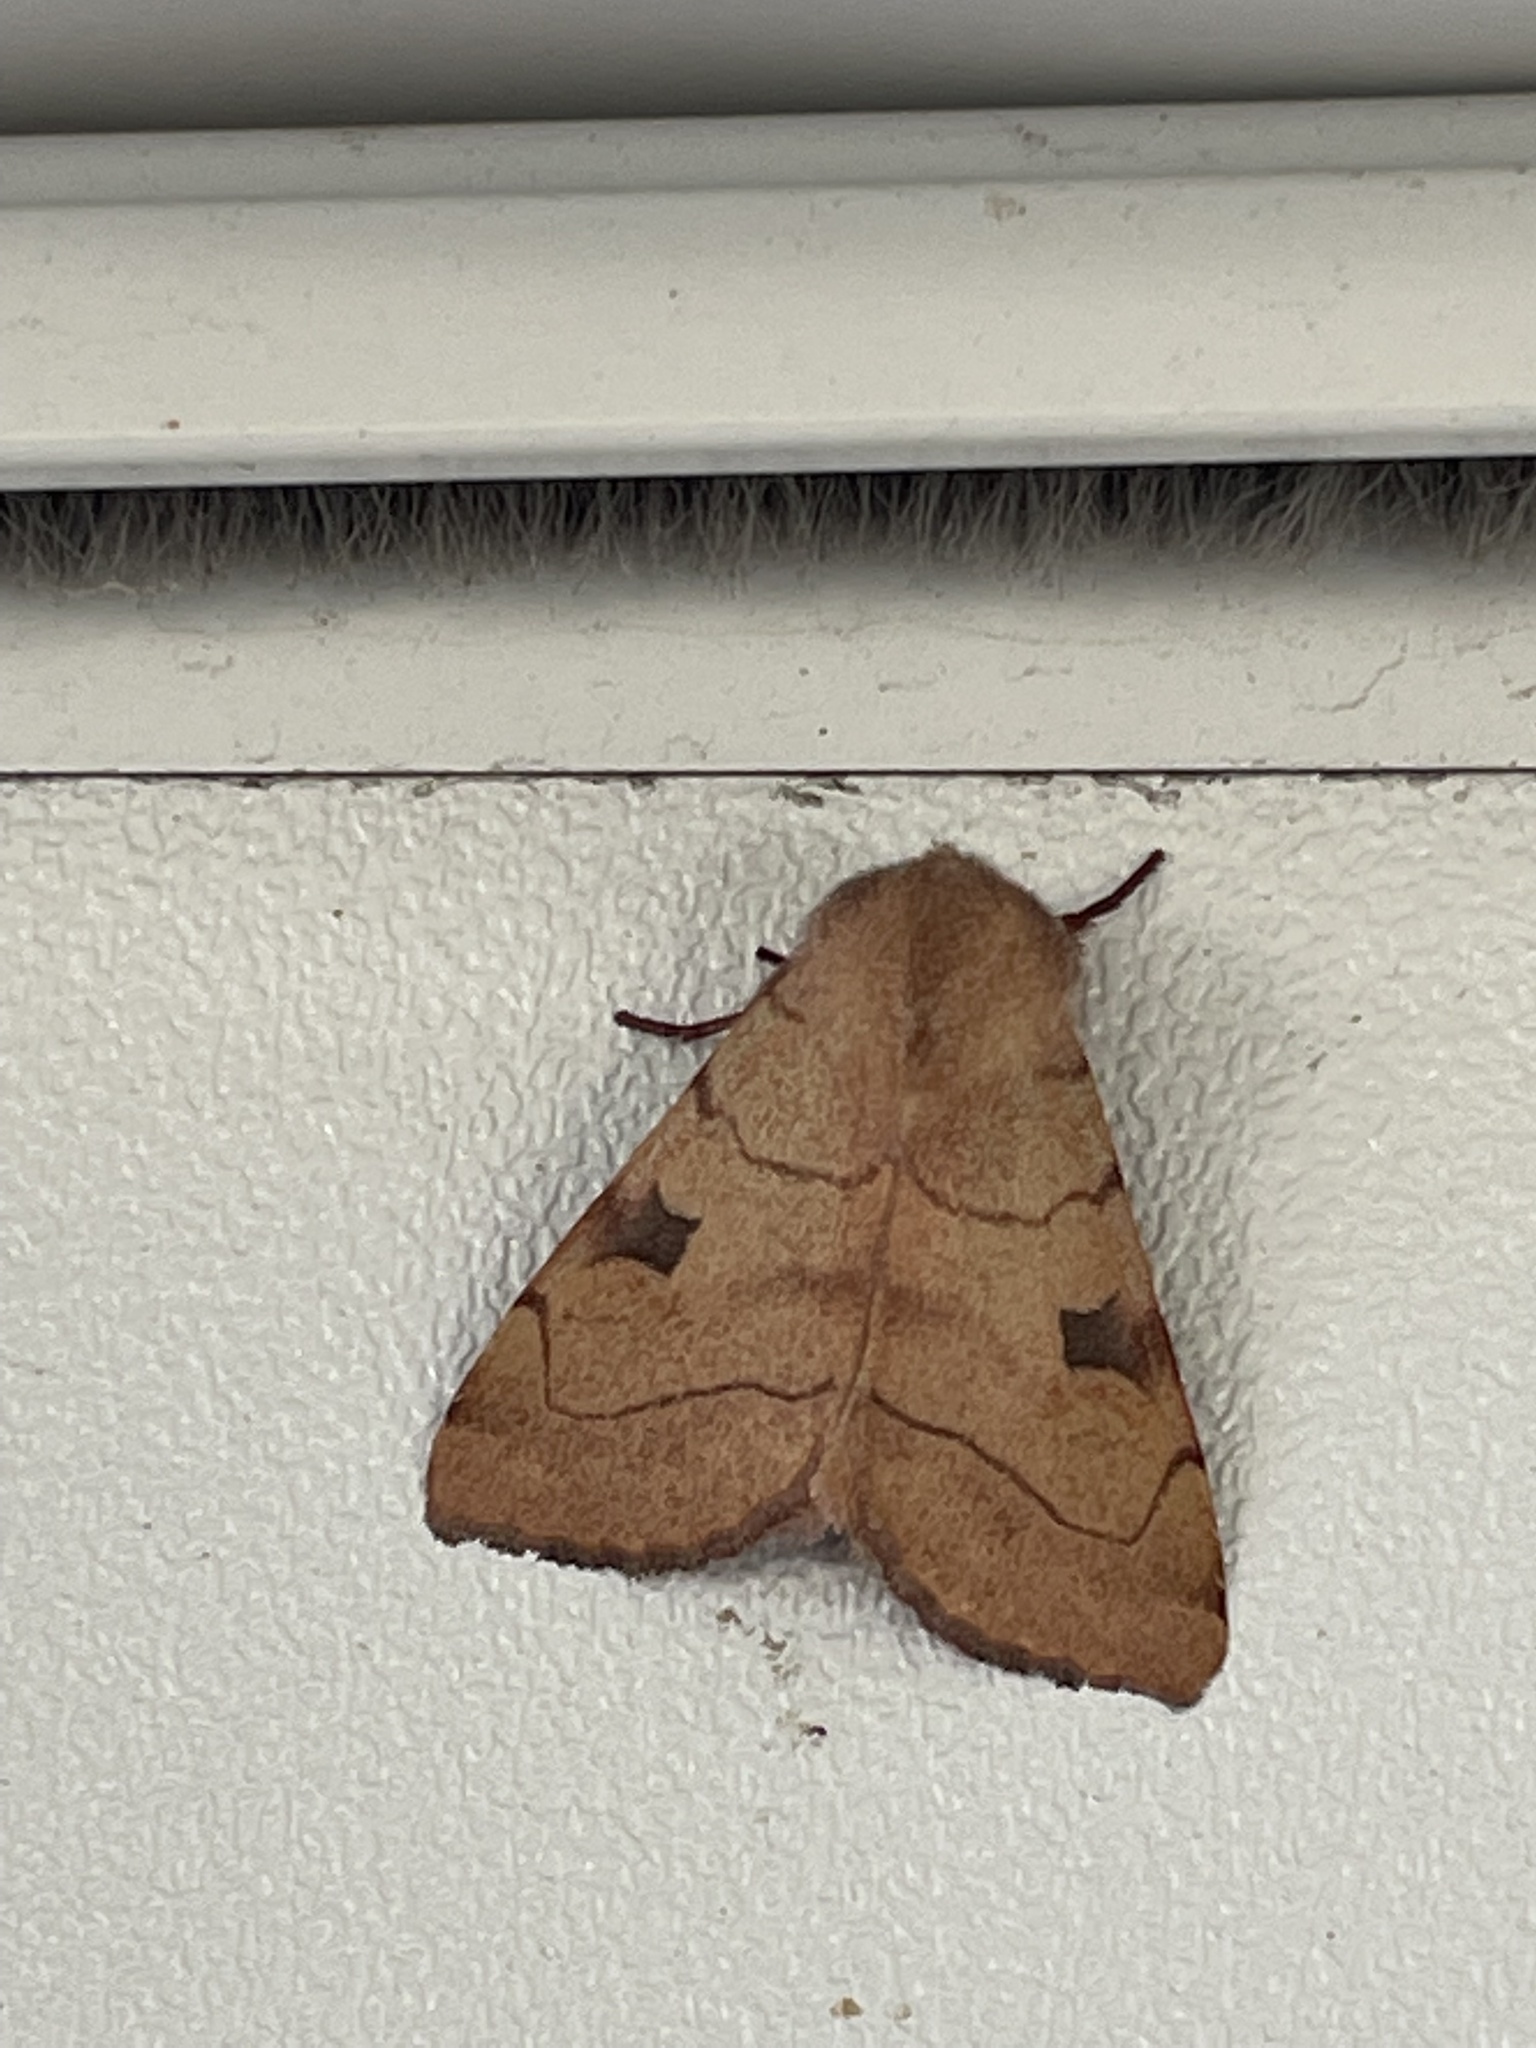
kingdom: Animalia
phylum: Arthropoda
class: Insecta
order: Lepidoptera
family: Noctuidae
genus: Choephora
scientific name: Choephora fungorum
